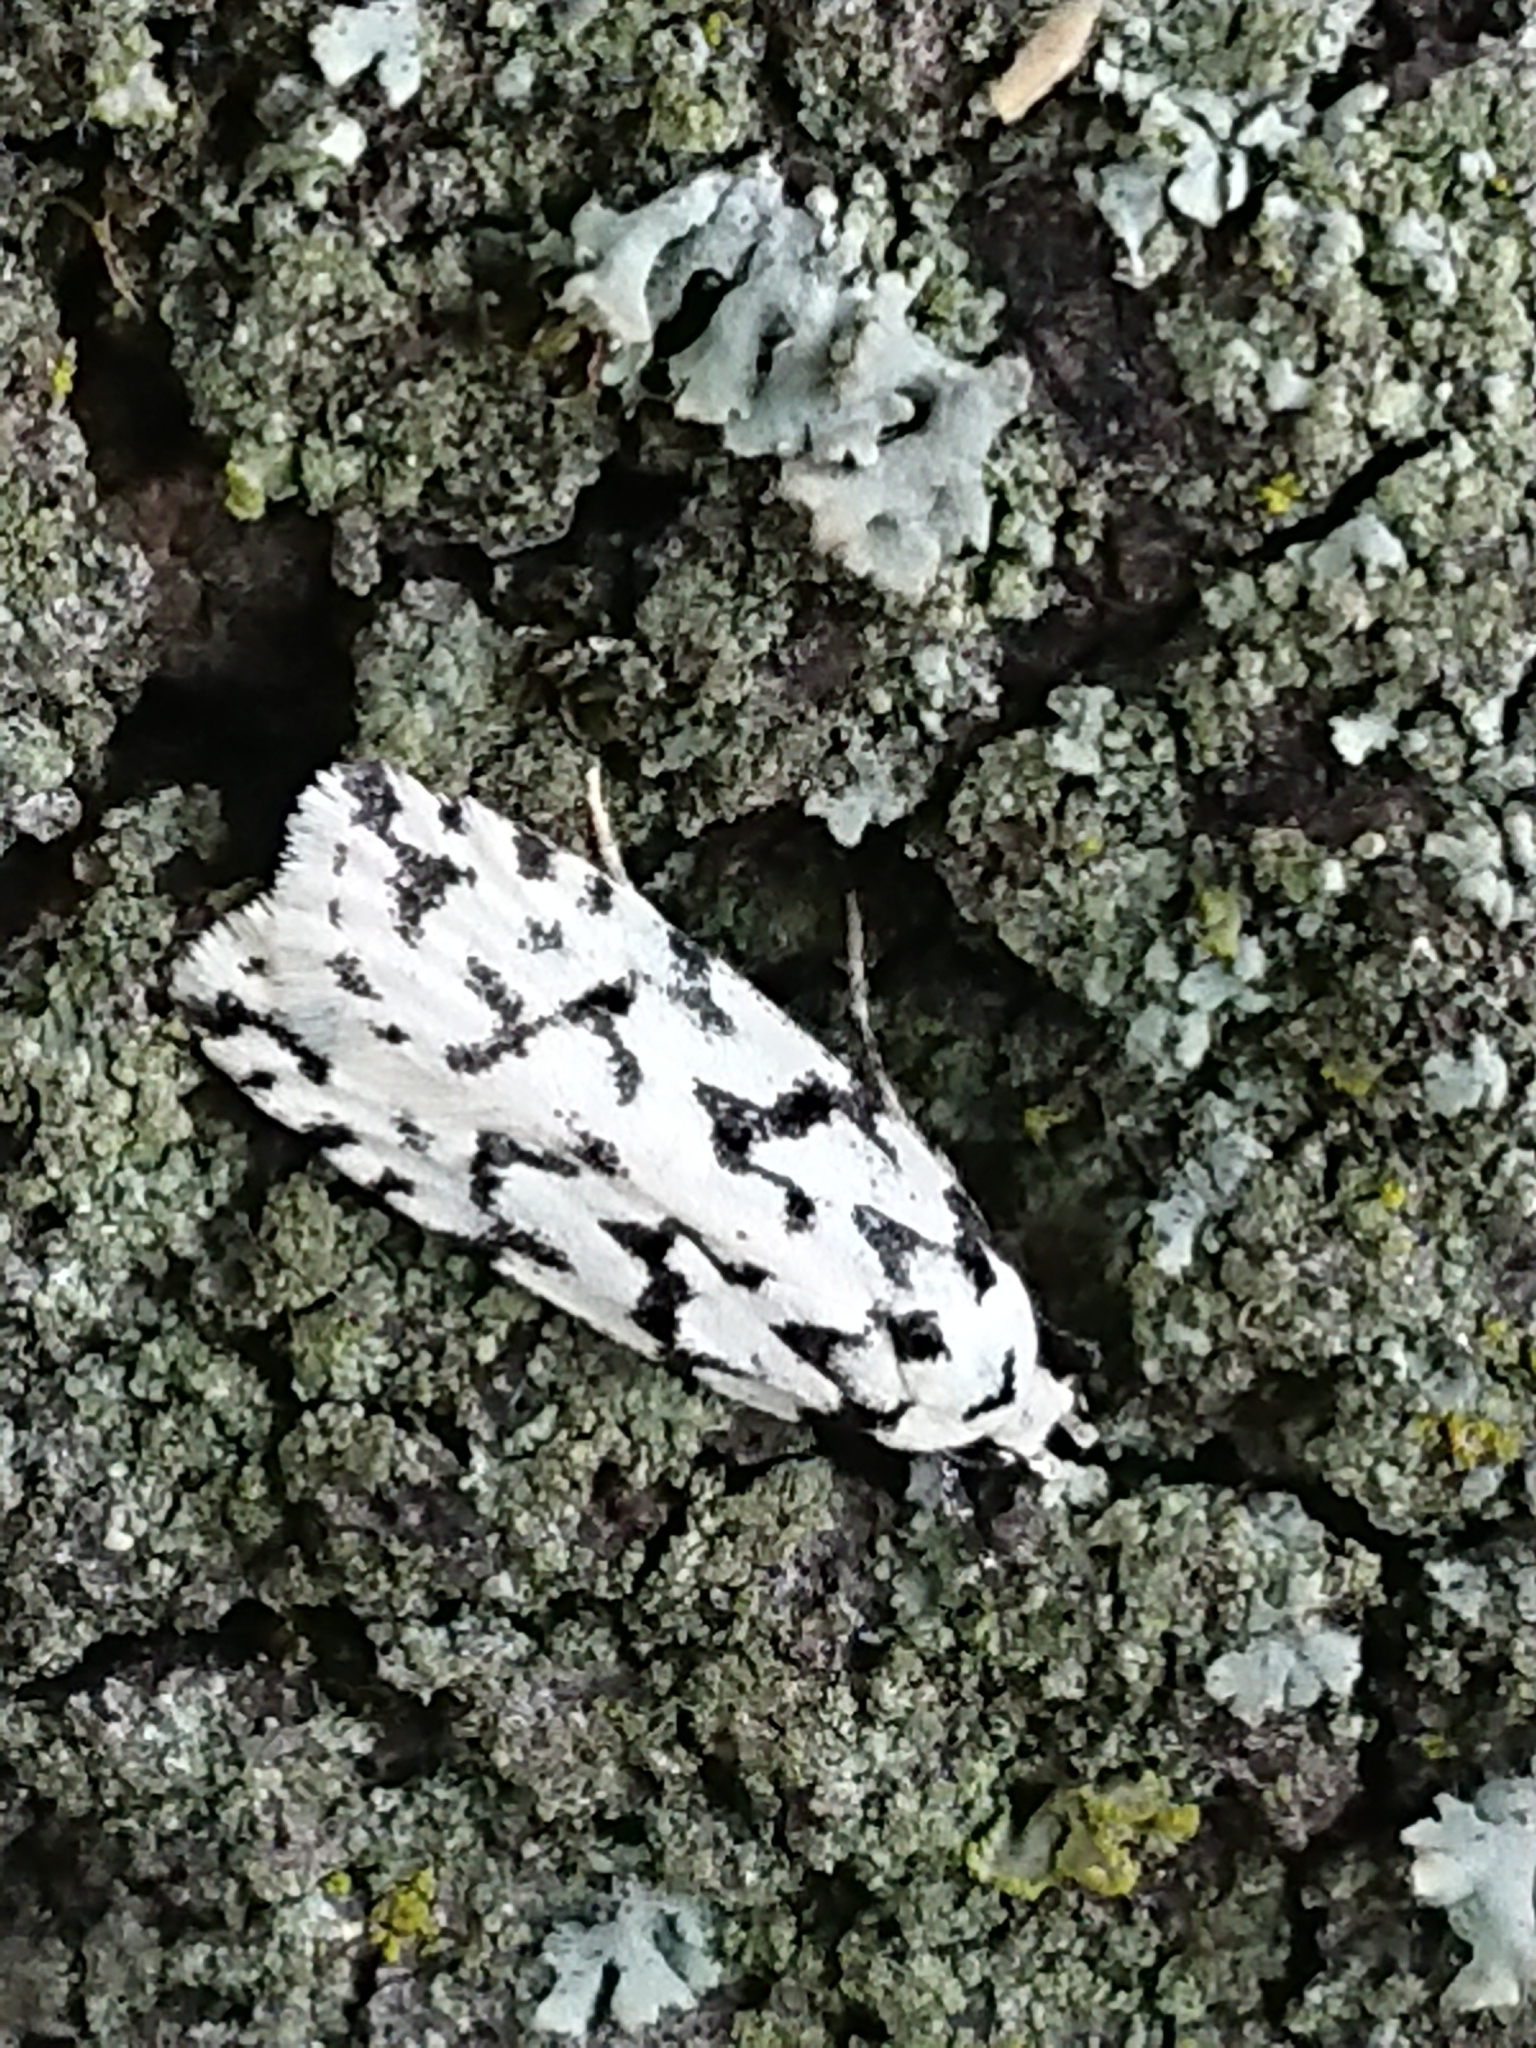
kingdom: Animalia
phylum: Arthropoda
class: Insecta
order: Lepidoptera
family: Oecophoridae
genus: Izatha
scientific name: Izatha katadiktya
